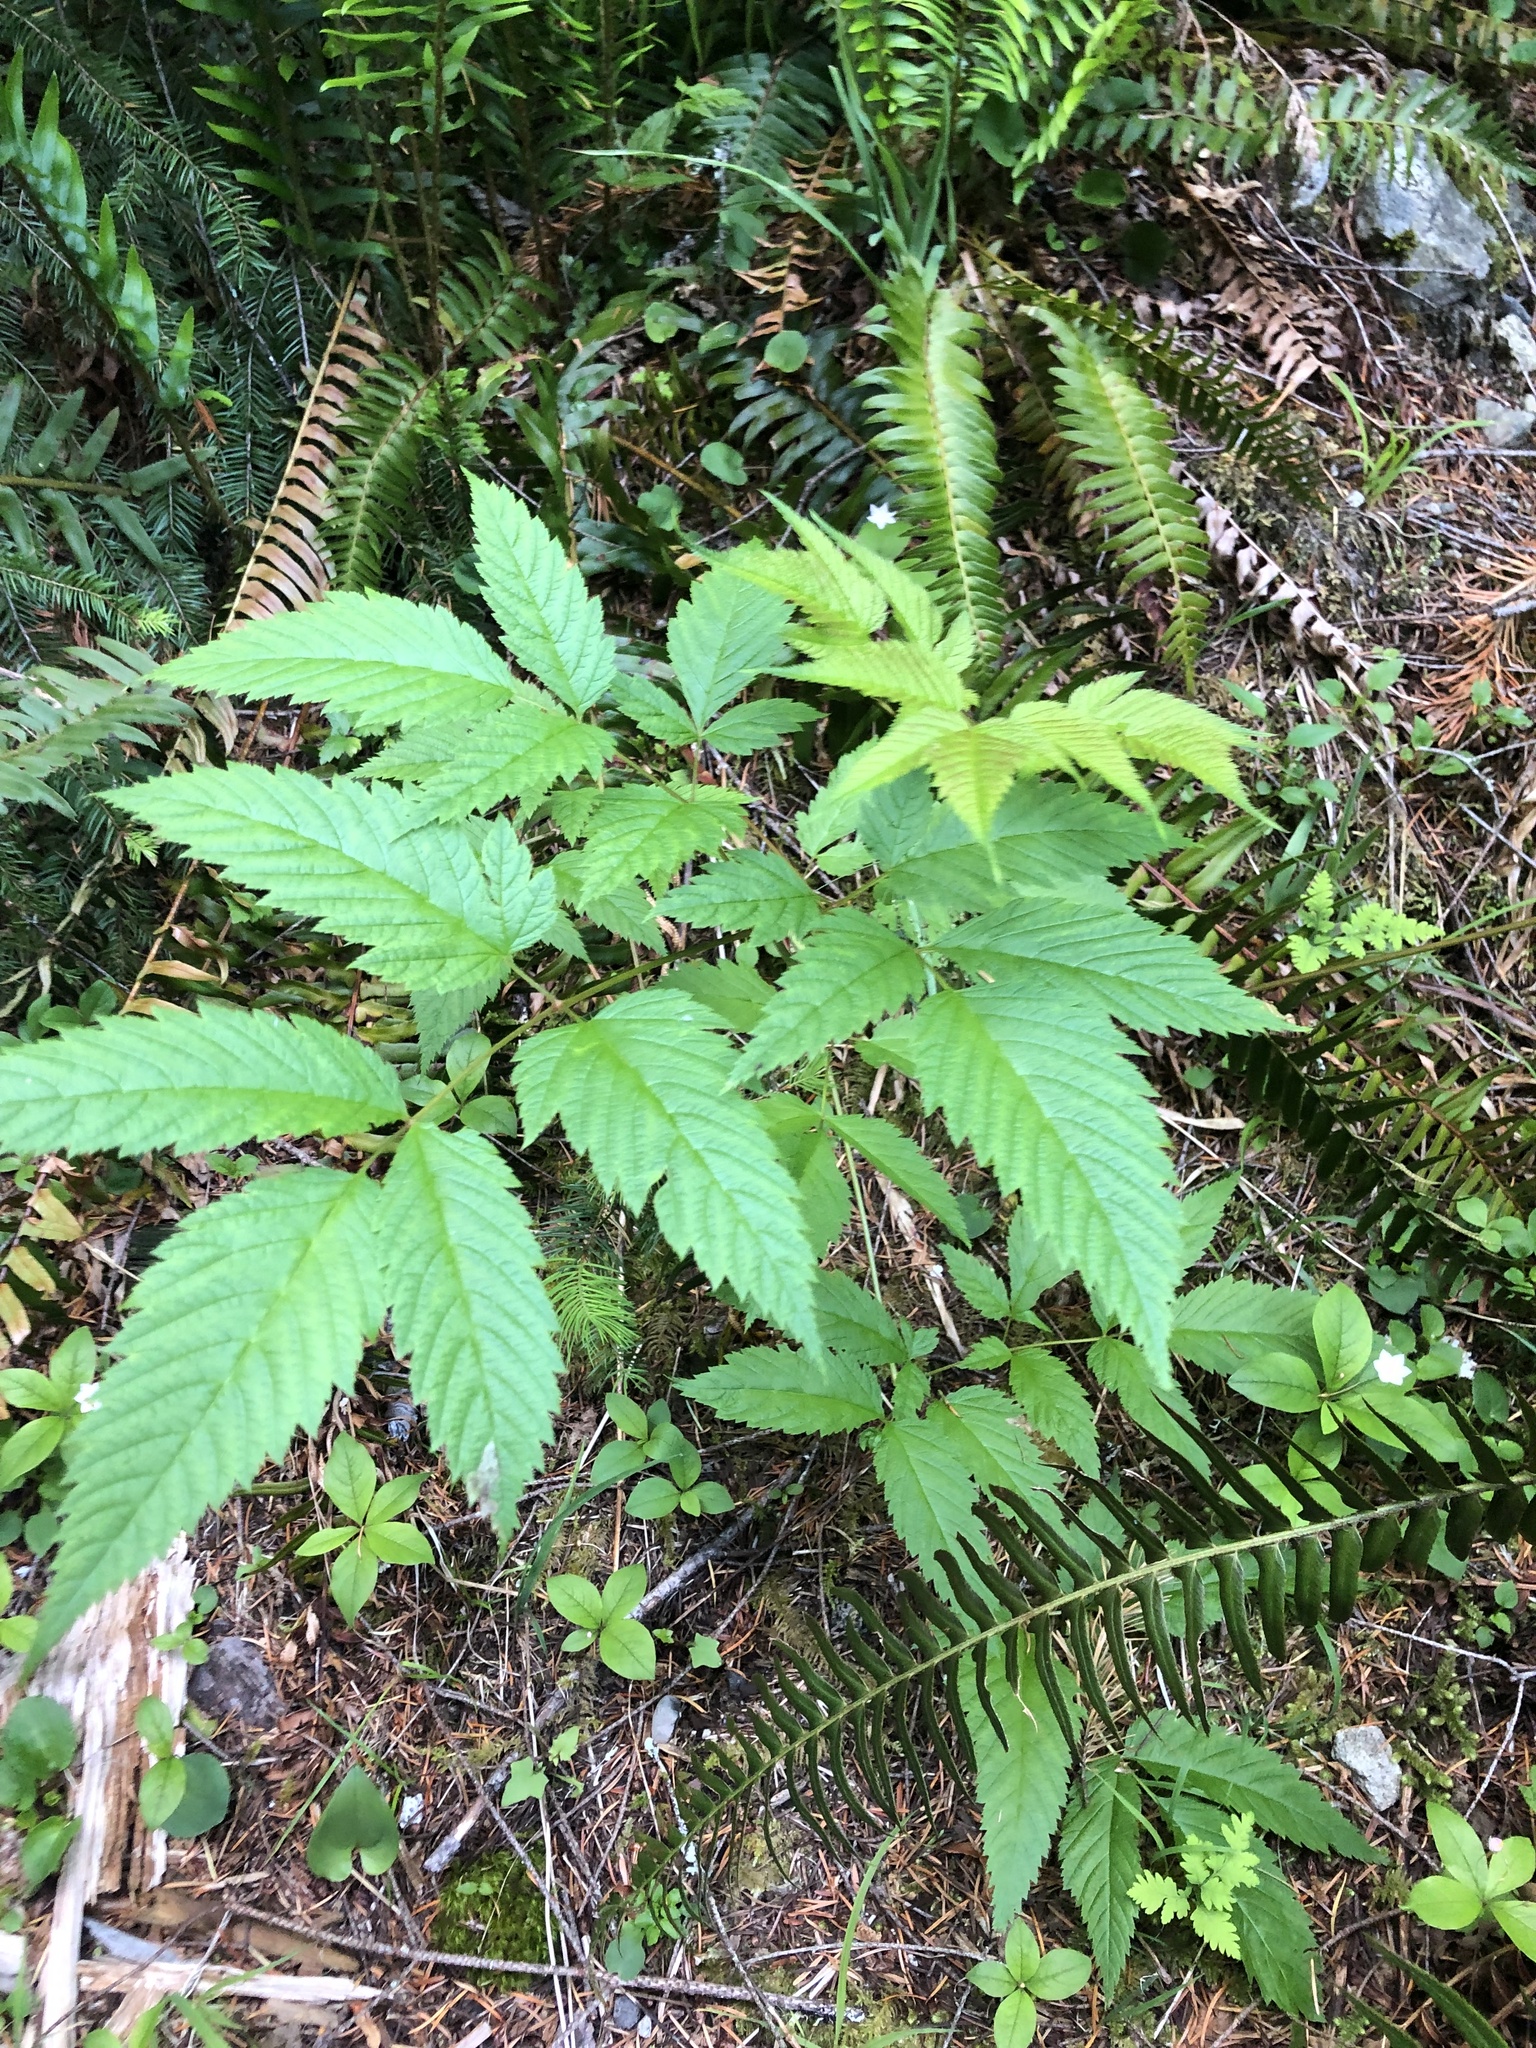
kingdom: Plantae
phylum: Tracheophyta
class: Magnoliopsida
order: Rosales
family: Rosaceae
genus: Aruncus
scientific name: Aruncus dioicus
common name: Buck's-beard
